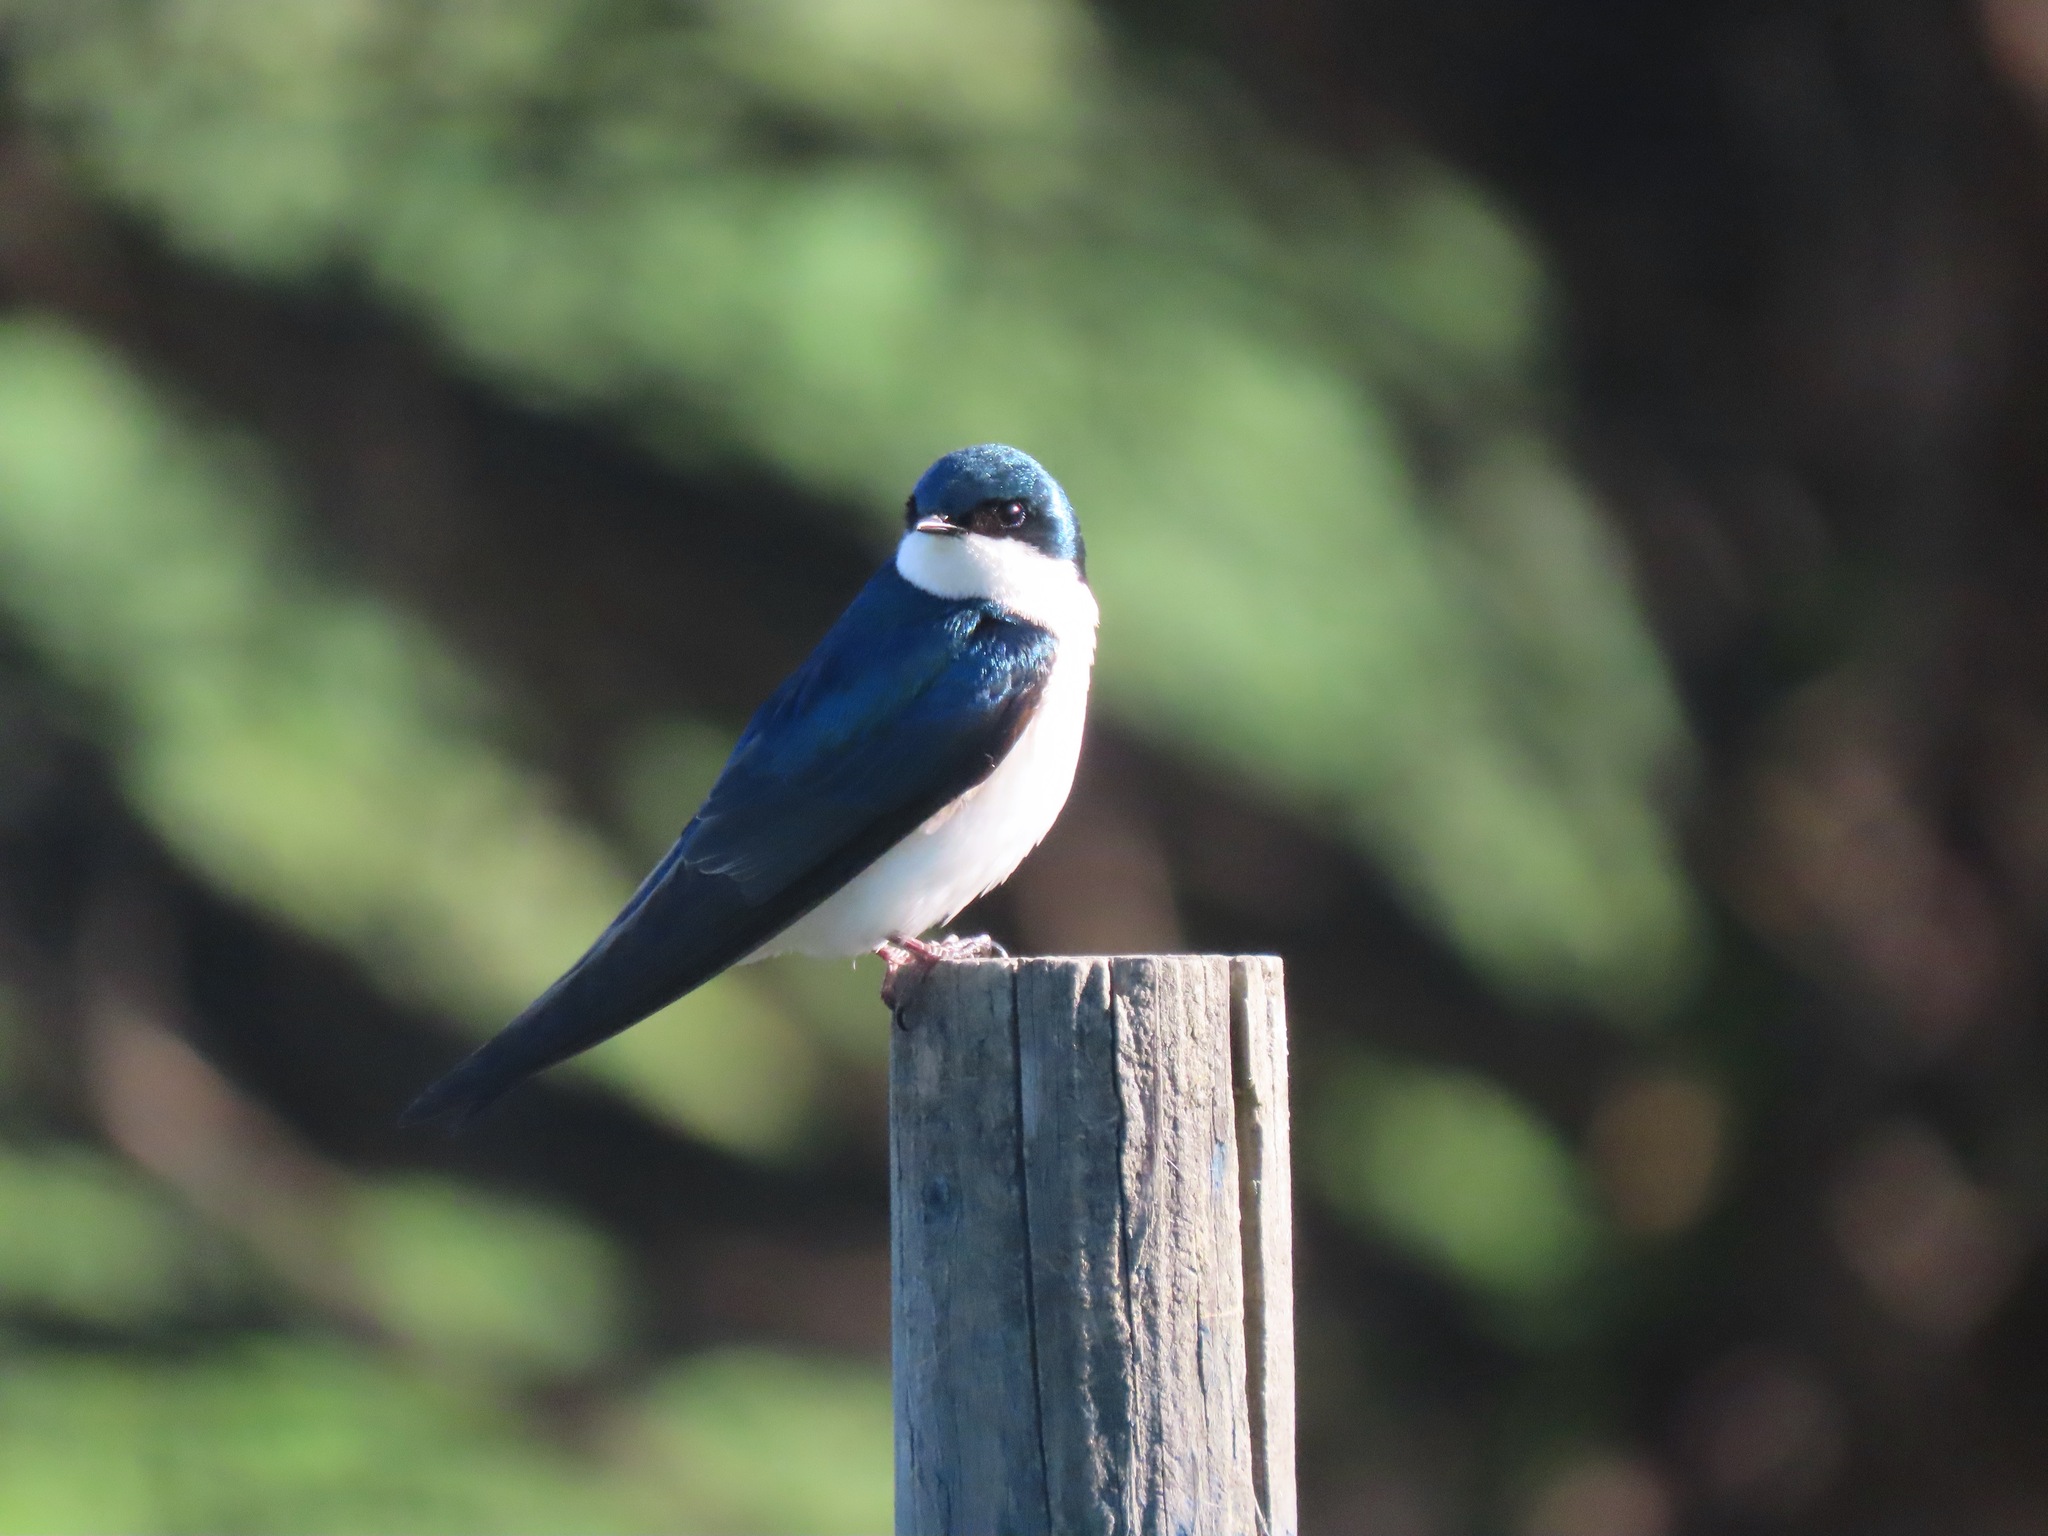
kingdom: Animalia
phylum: Chordata
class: Aves
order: Passeriformes
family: Hirundinidae
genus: Tachycineta
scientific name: Tachycineta bicolor
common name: Tree swallow
